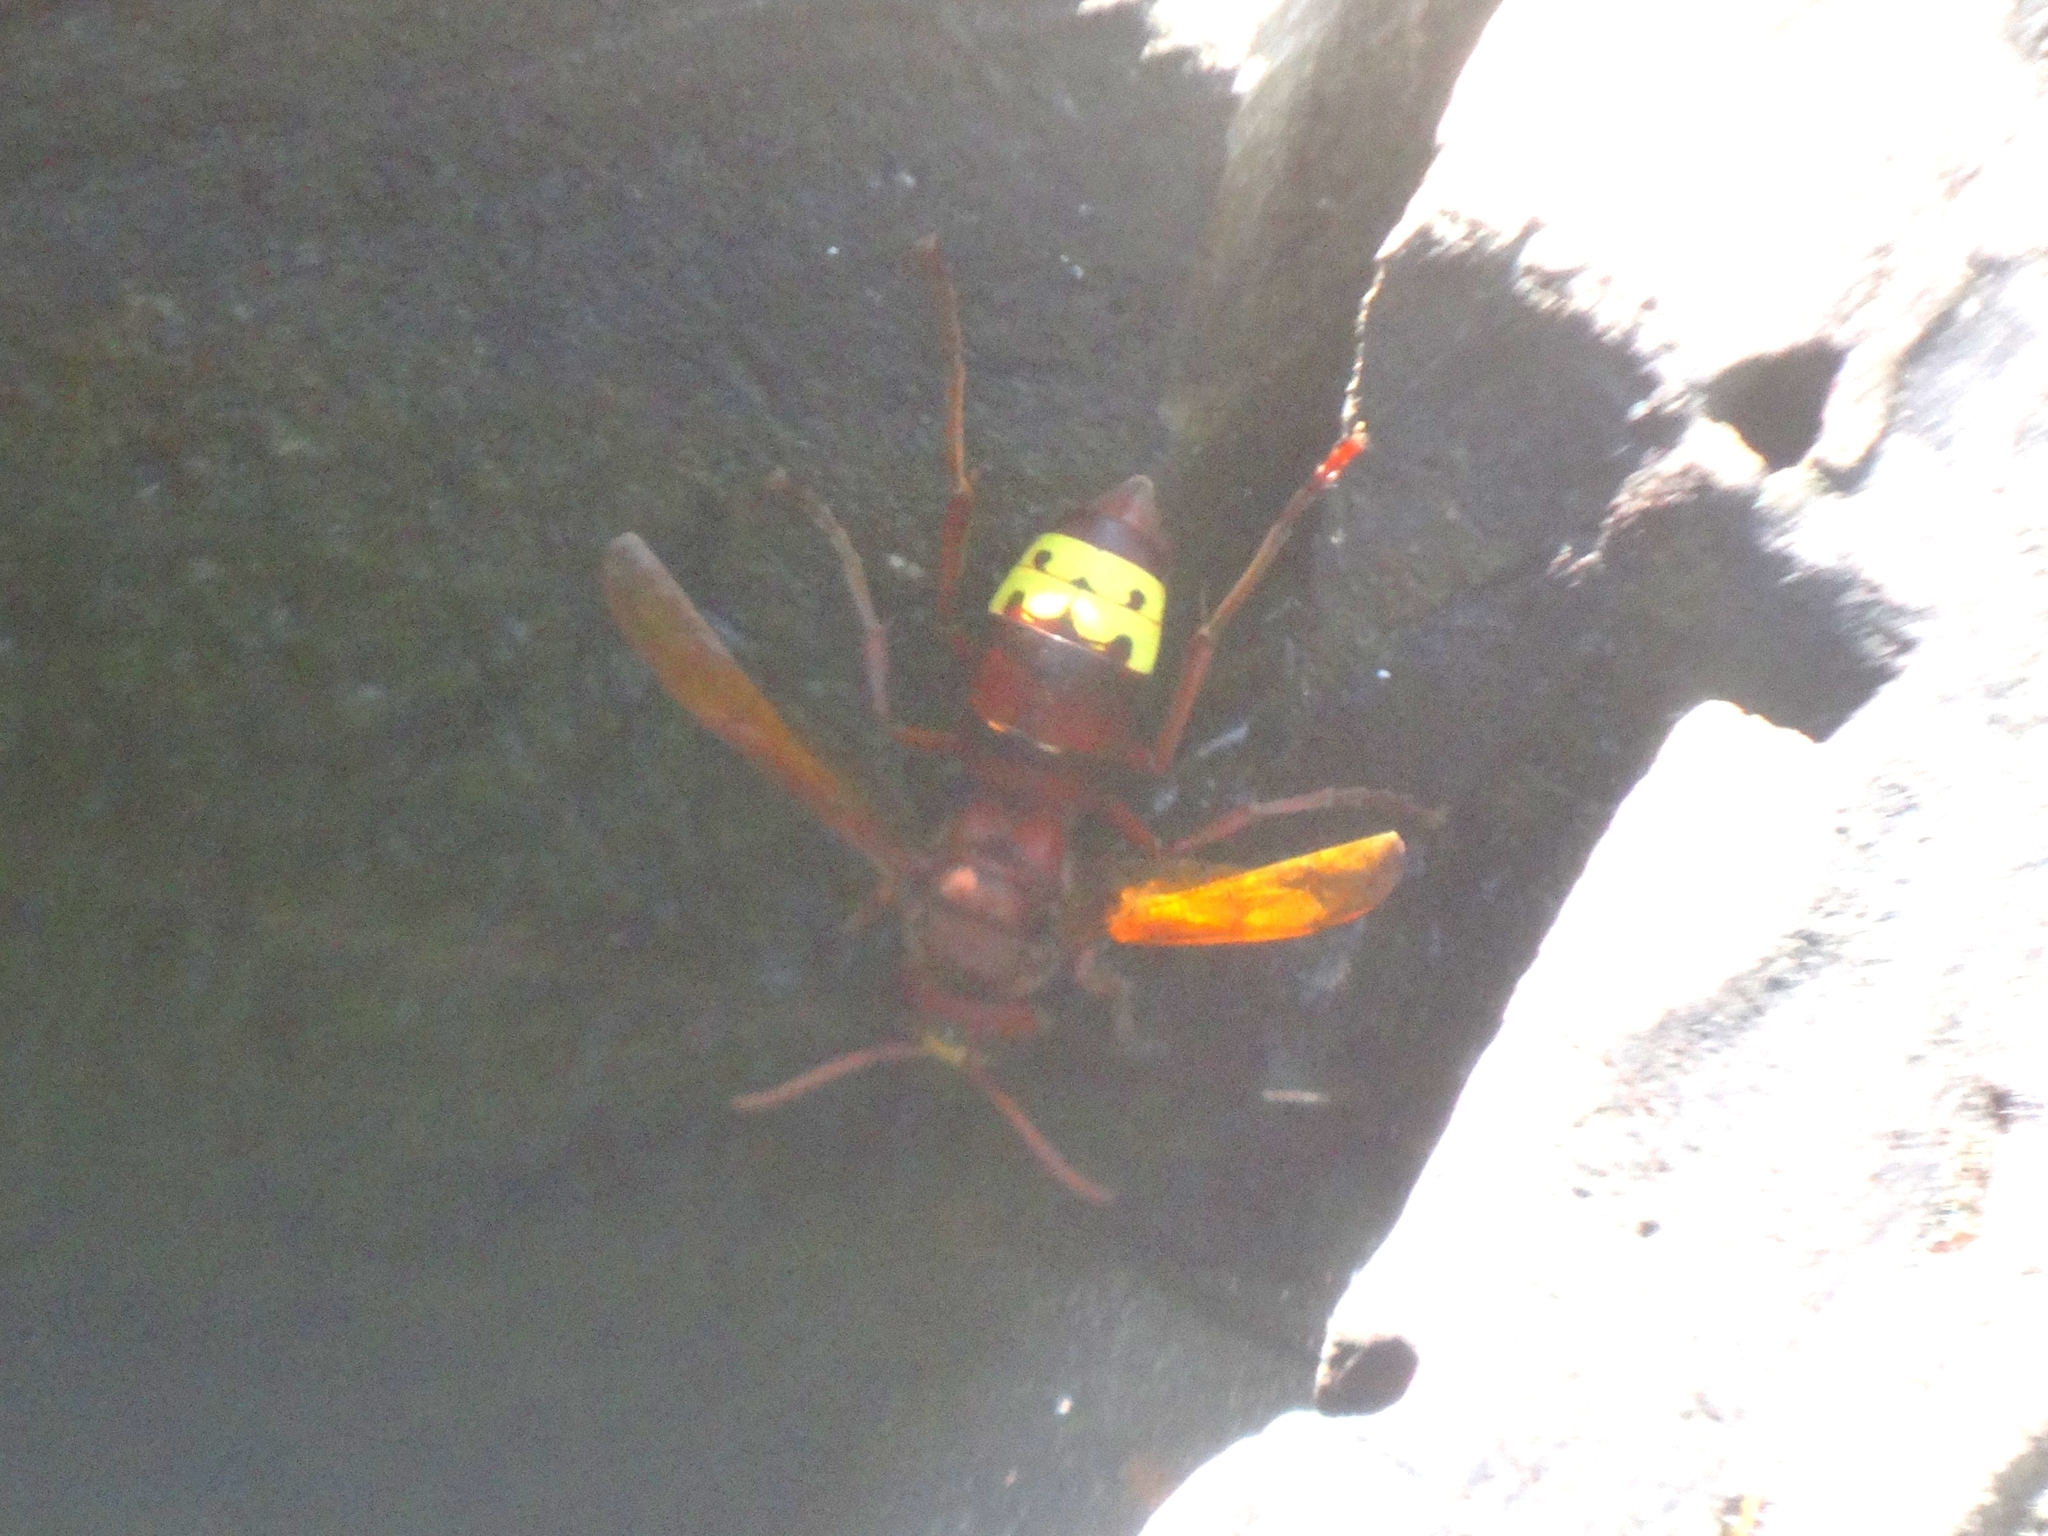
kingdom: Animalia
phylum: Arthropoda
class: Insecta
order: Hymenoptera
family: Vespidae
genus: Vespa
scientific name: Vespa orientalis
